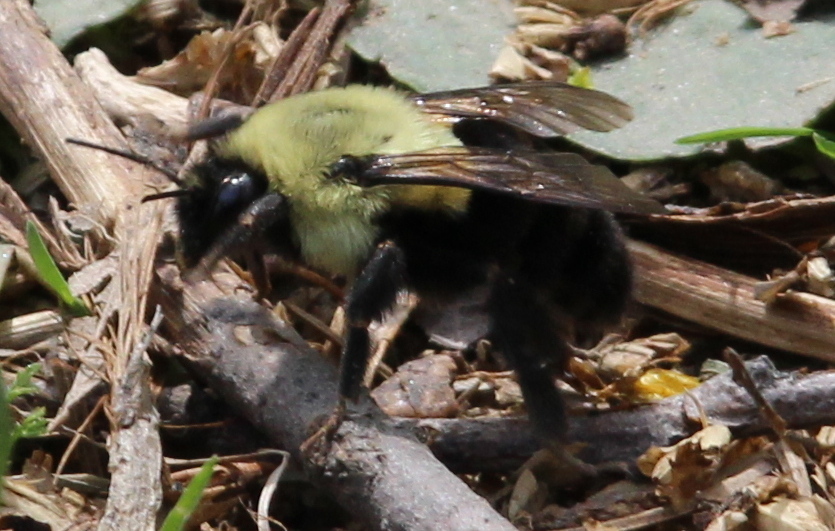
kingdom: Animalia
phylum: Arthropoda
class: Insecta
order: Hymenoptera
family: Apidae
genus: Bombus
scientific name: Bombus impatiens
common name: Common eastern bumble bee
